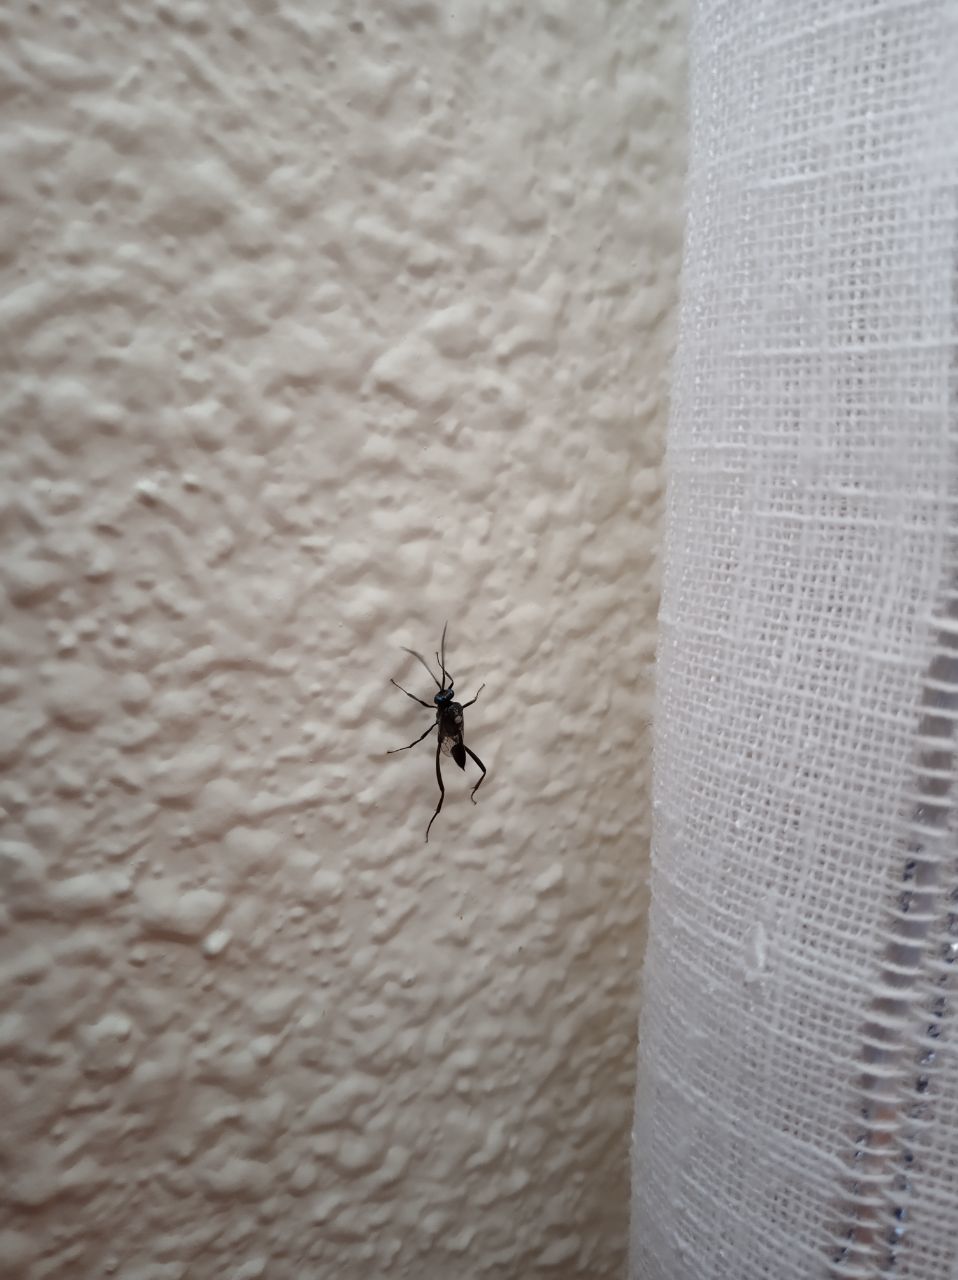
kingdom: Animalia
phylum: Arthropoda
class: Insecta
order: Hymenoptera
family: Evaniidae
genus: Evania
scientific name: Evania appendigaster
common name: Ensign wasp
